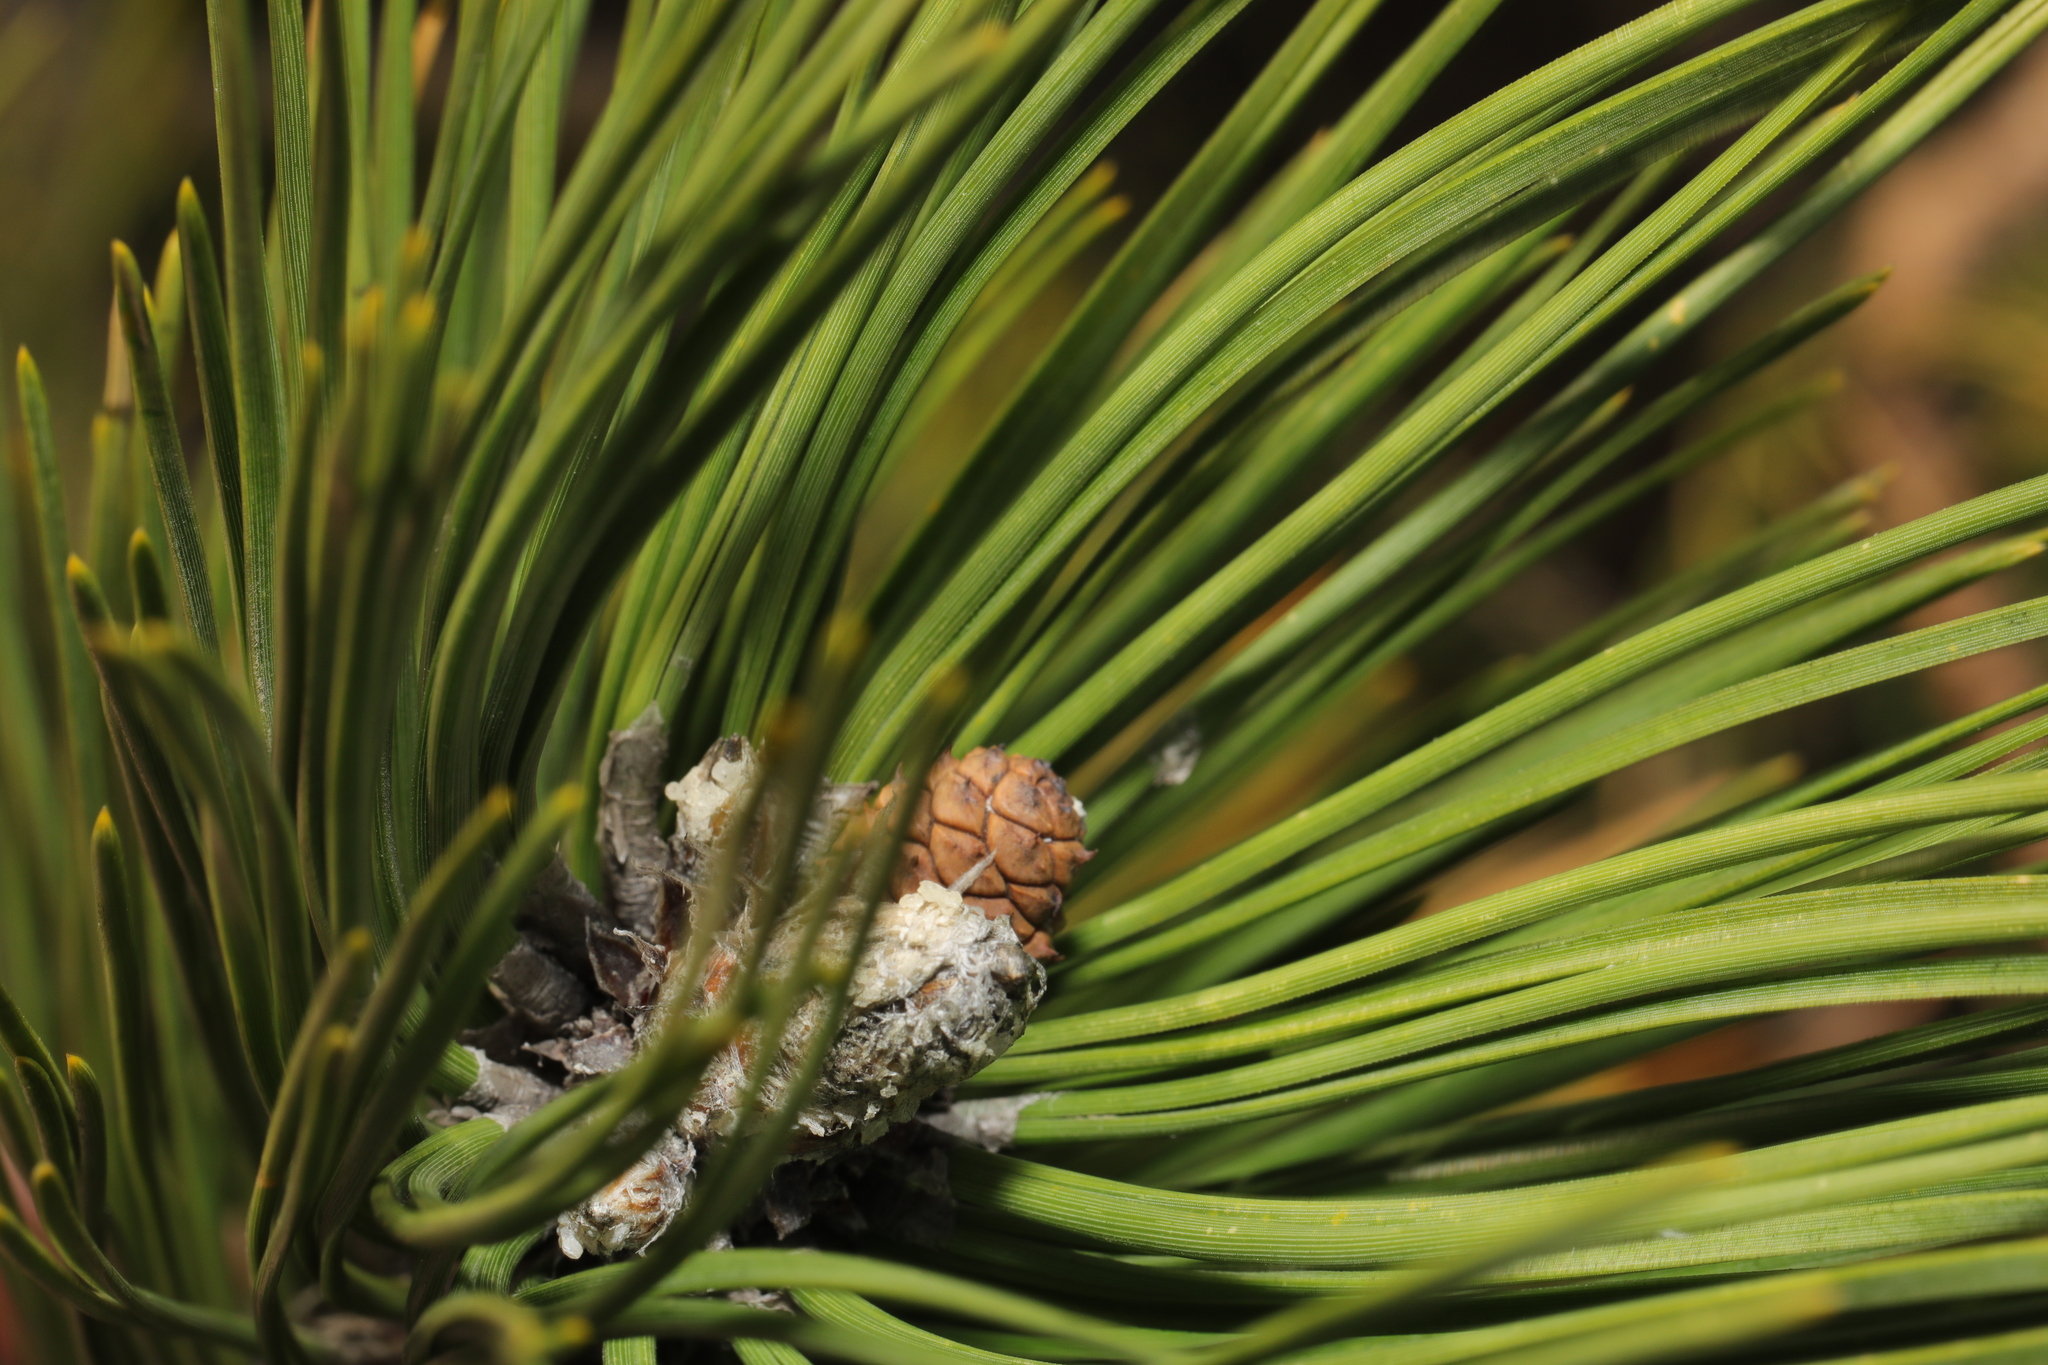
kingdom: Plantae
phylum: Tracheophyta
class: Pinopsida
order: Pinales
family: Pinaceae
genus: Pinus
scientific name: Pinus nigra
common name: Austrian pine
